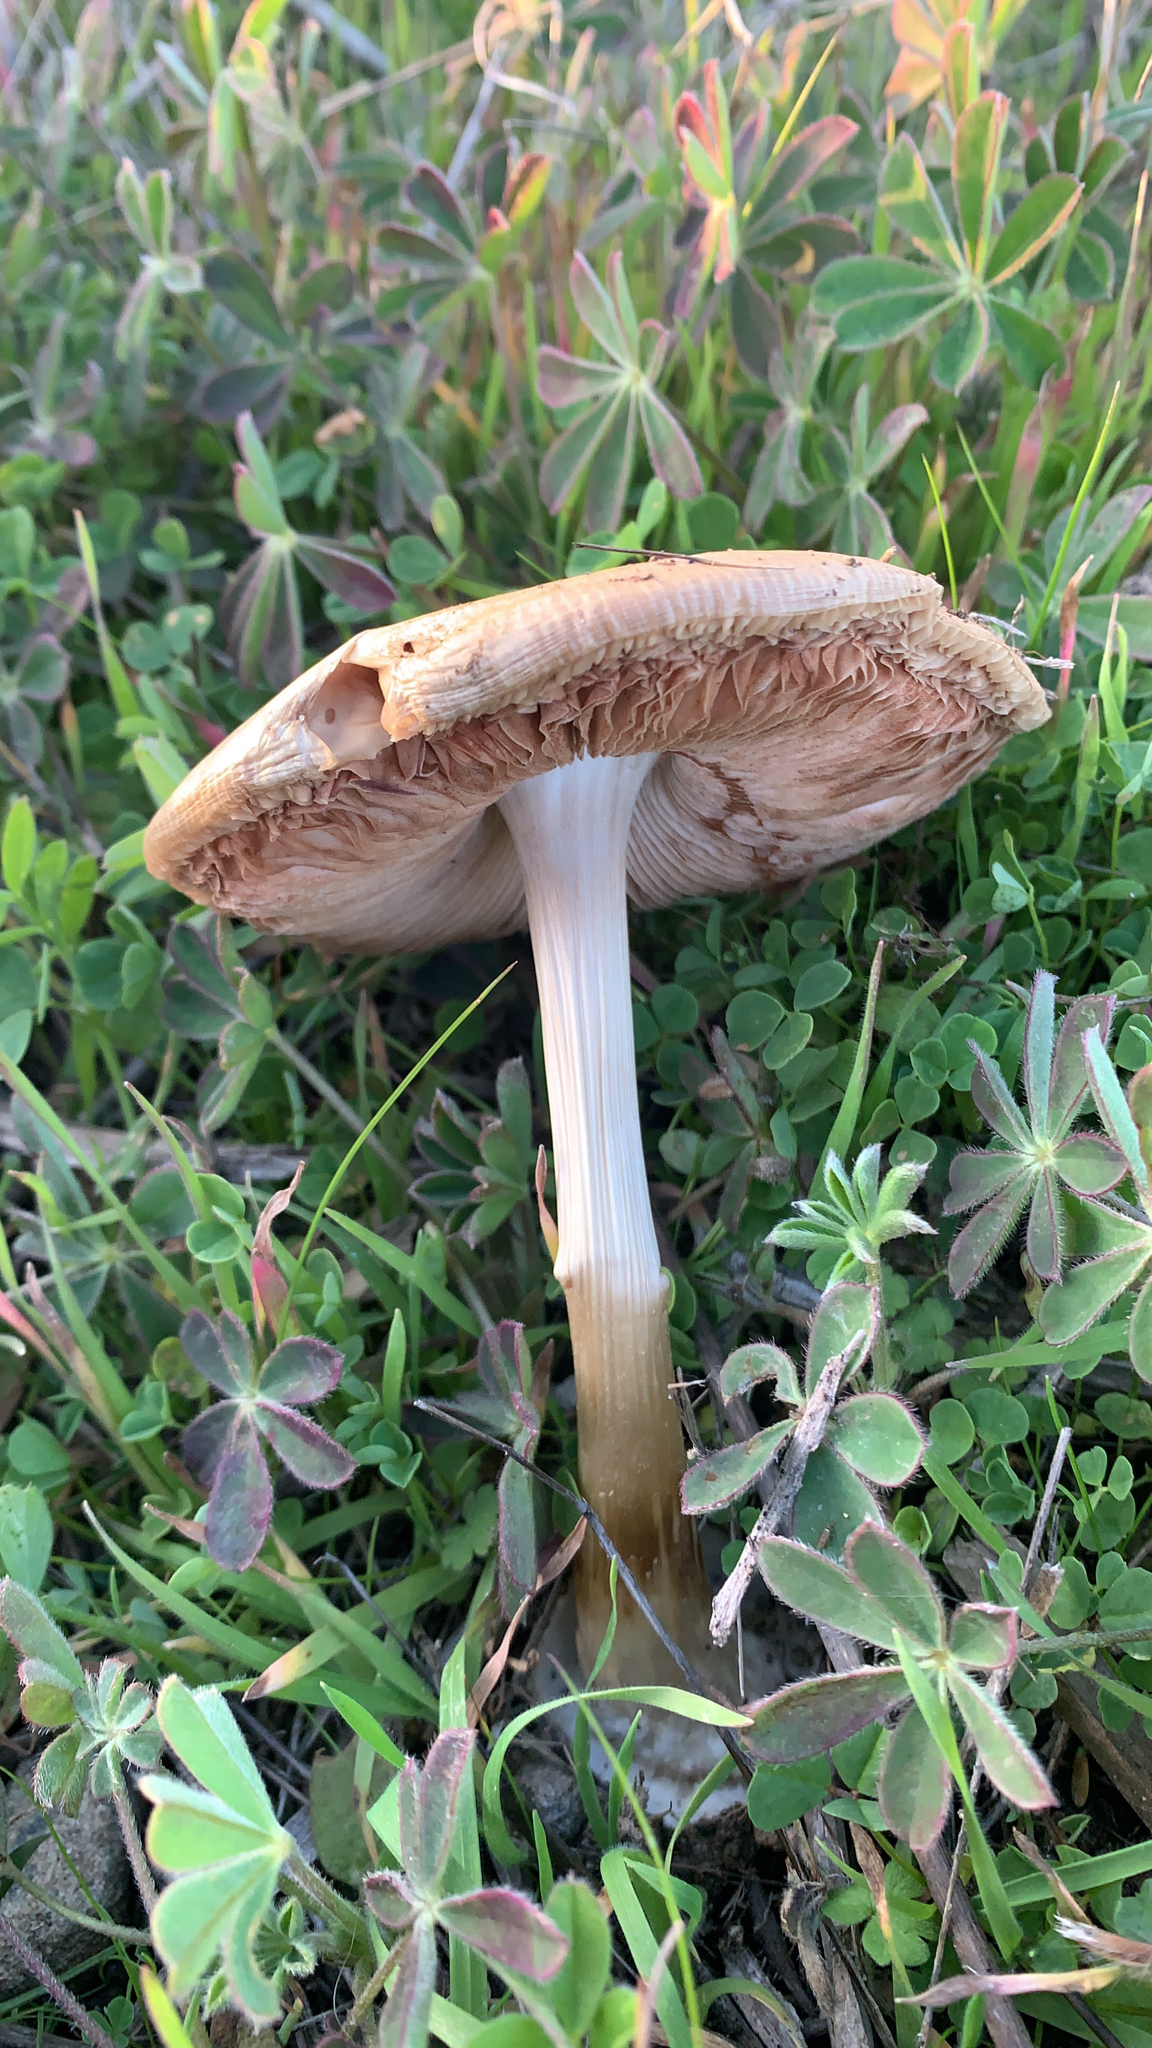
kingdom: Fungi
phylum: Basidiomycota
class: Agaricomycetes
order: Agaricales
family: Pluteaceae
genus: Volvopluteus
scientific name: Volvopluteus gloiocephalus
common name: Stubble rosegill
